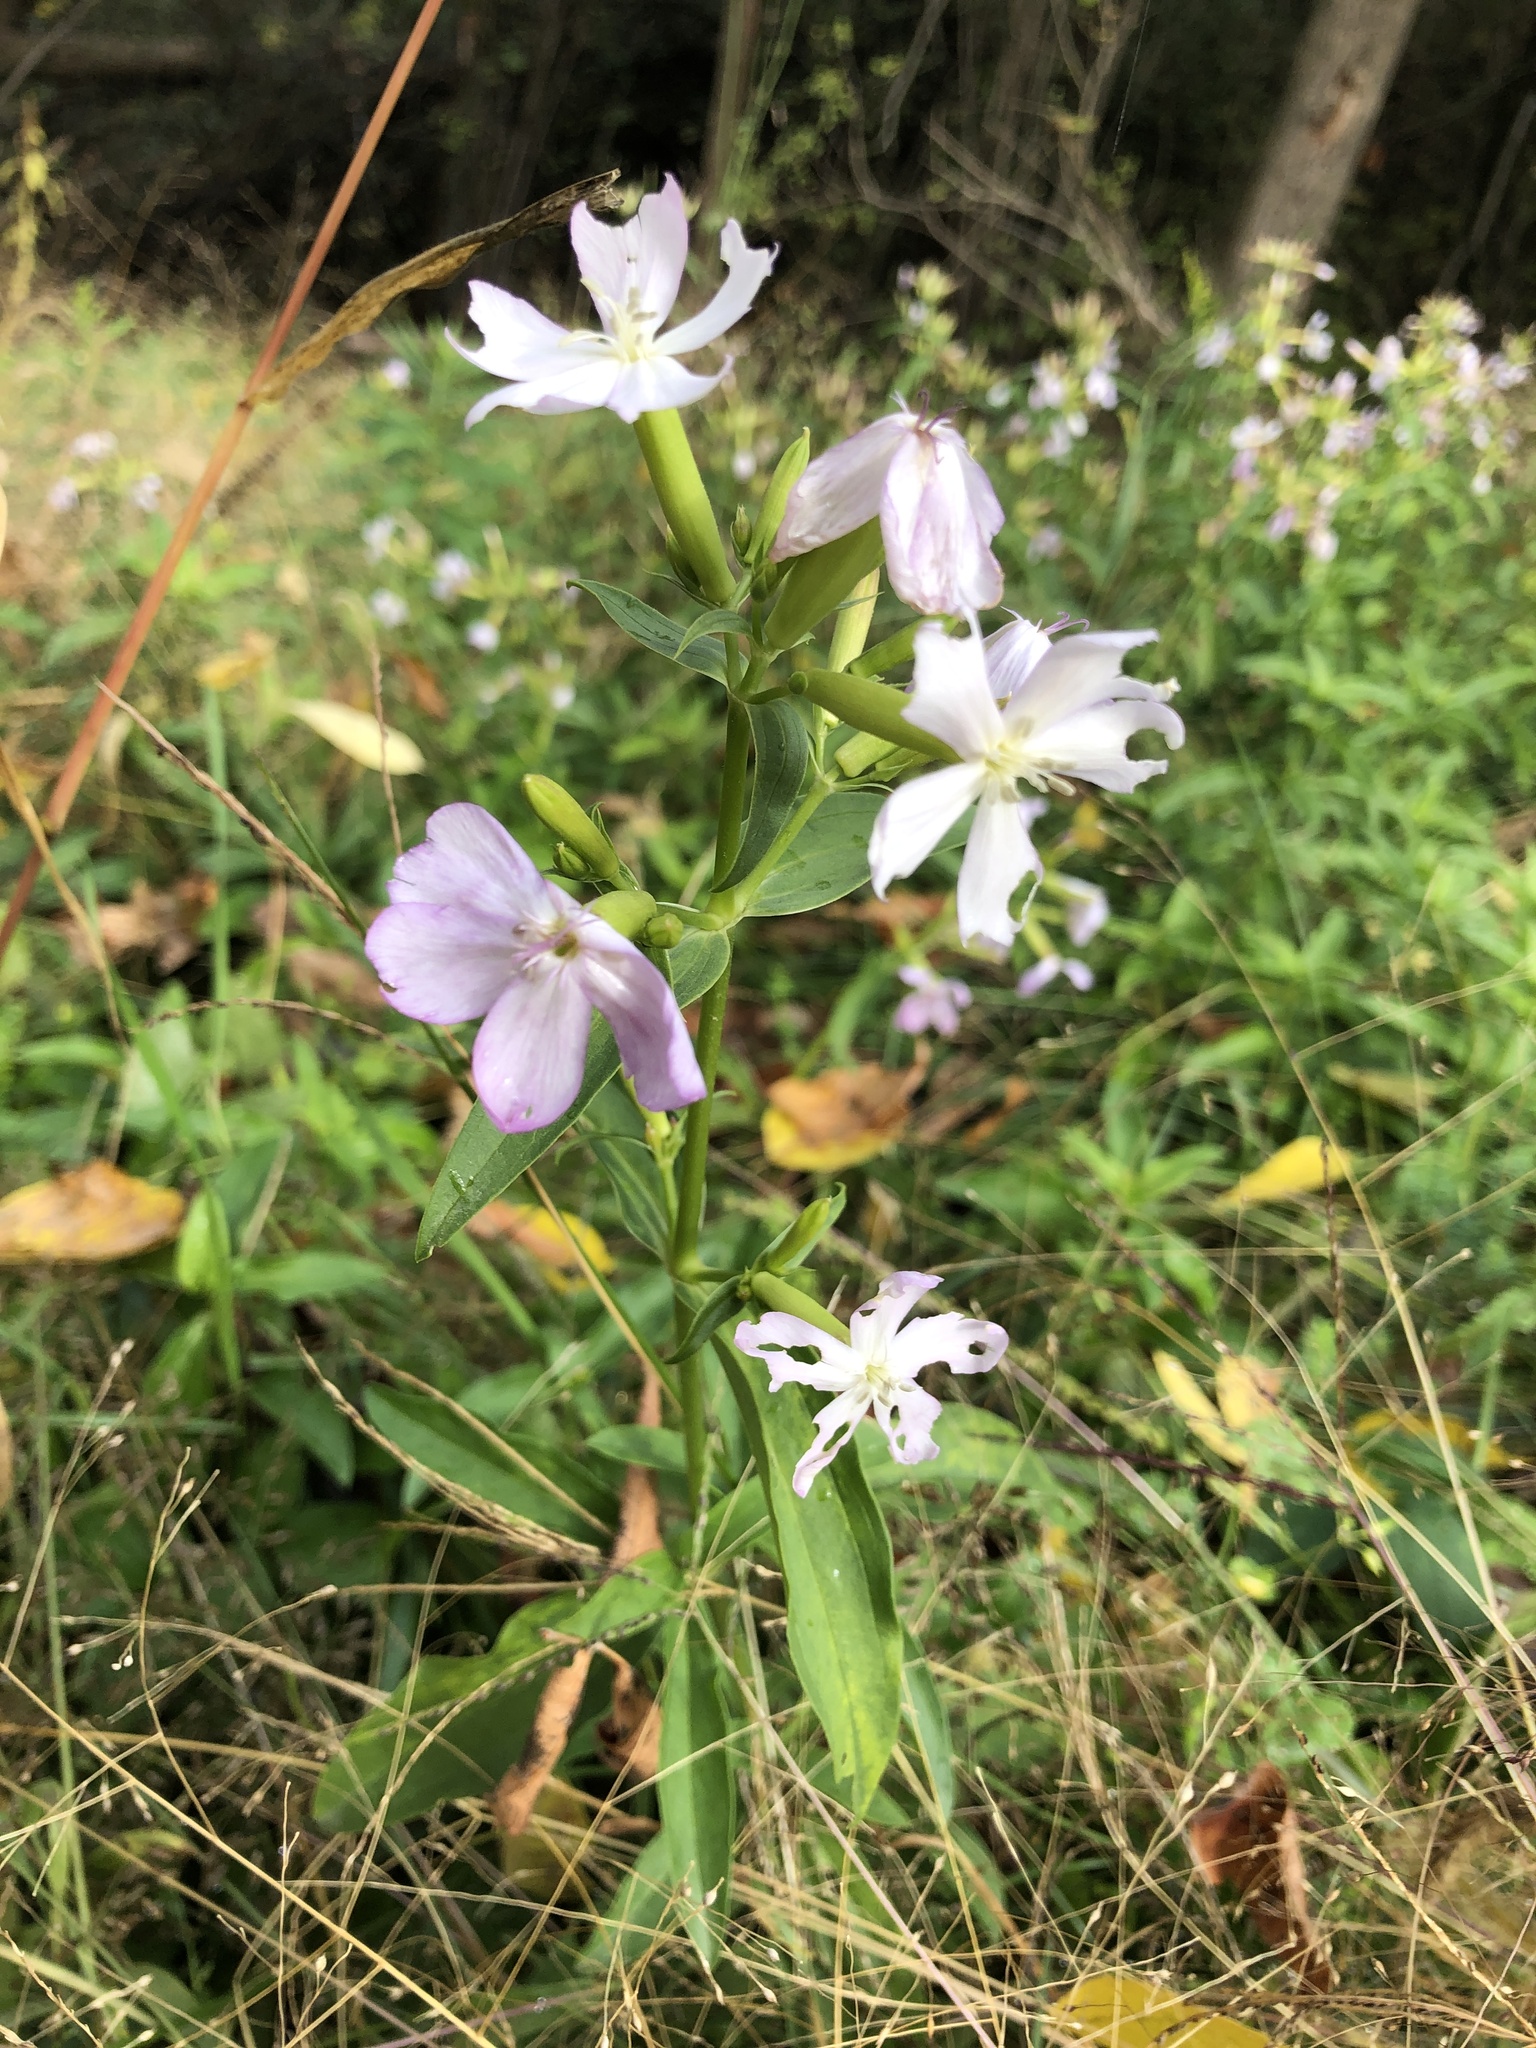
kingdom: Plantae
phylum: Tracheophyta
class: Magnoliopsida
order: Caryophyllales
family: Caryophyllaceae
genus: Saponaria
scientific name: Saponaria officinalis
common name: Soapwort
